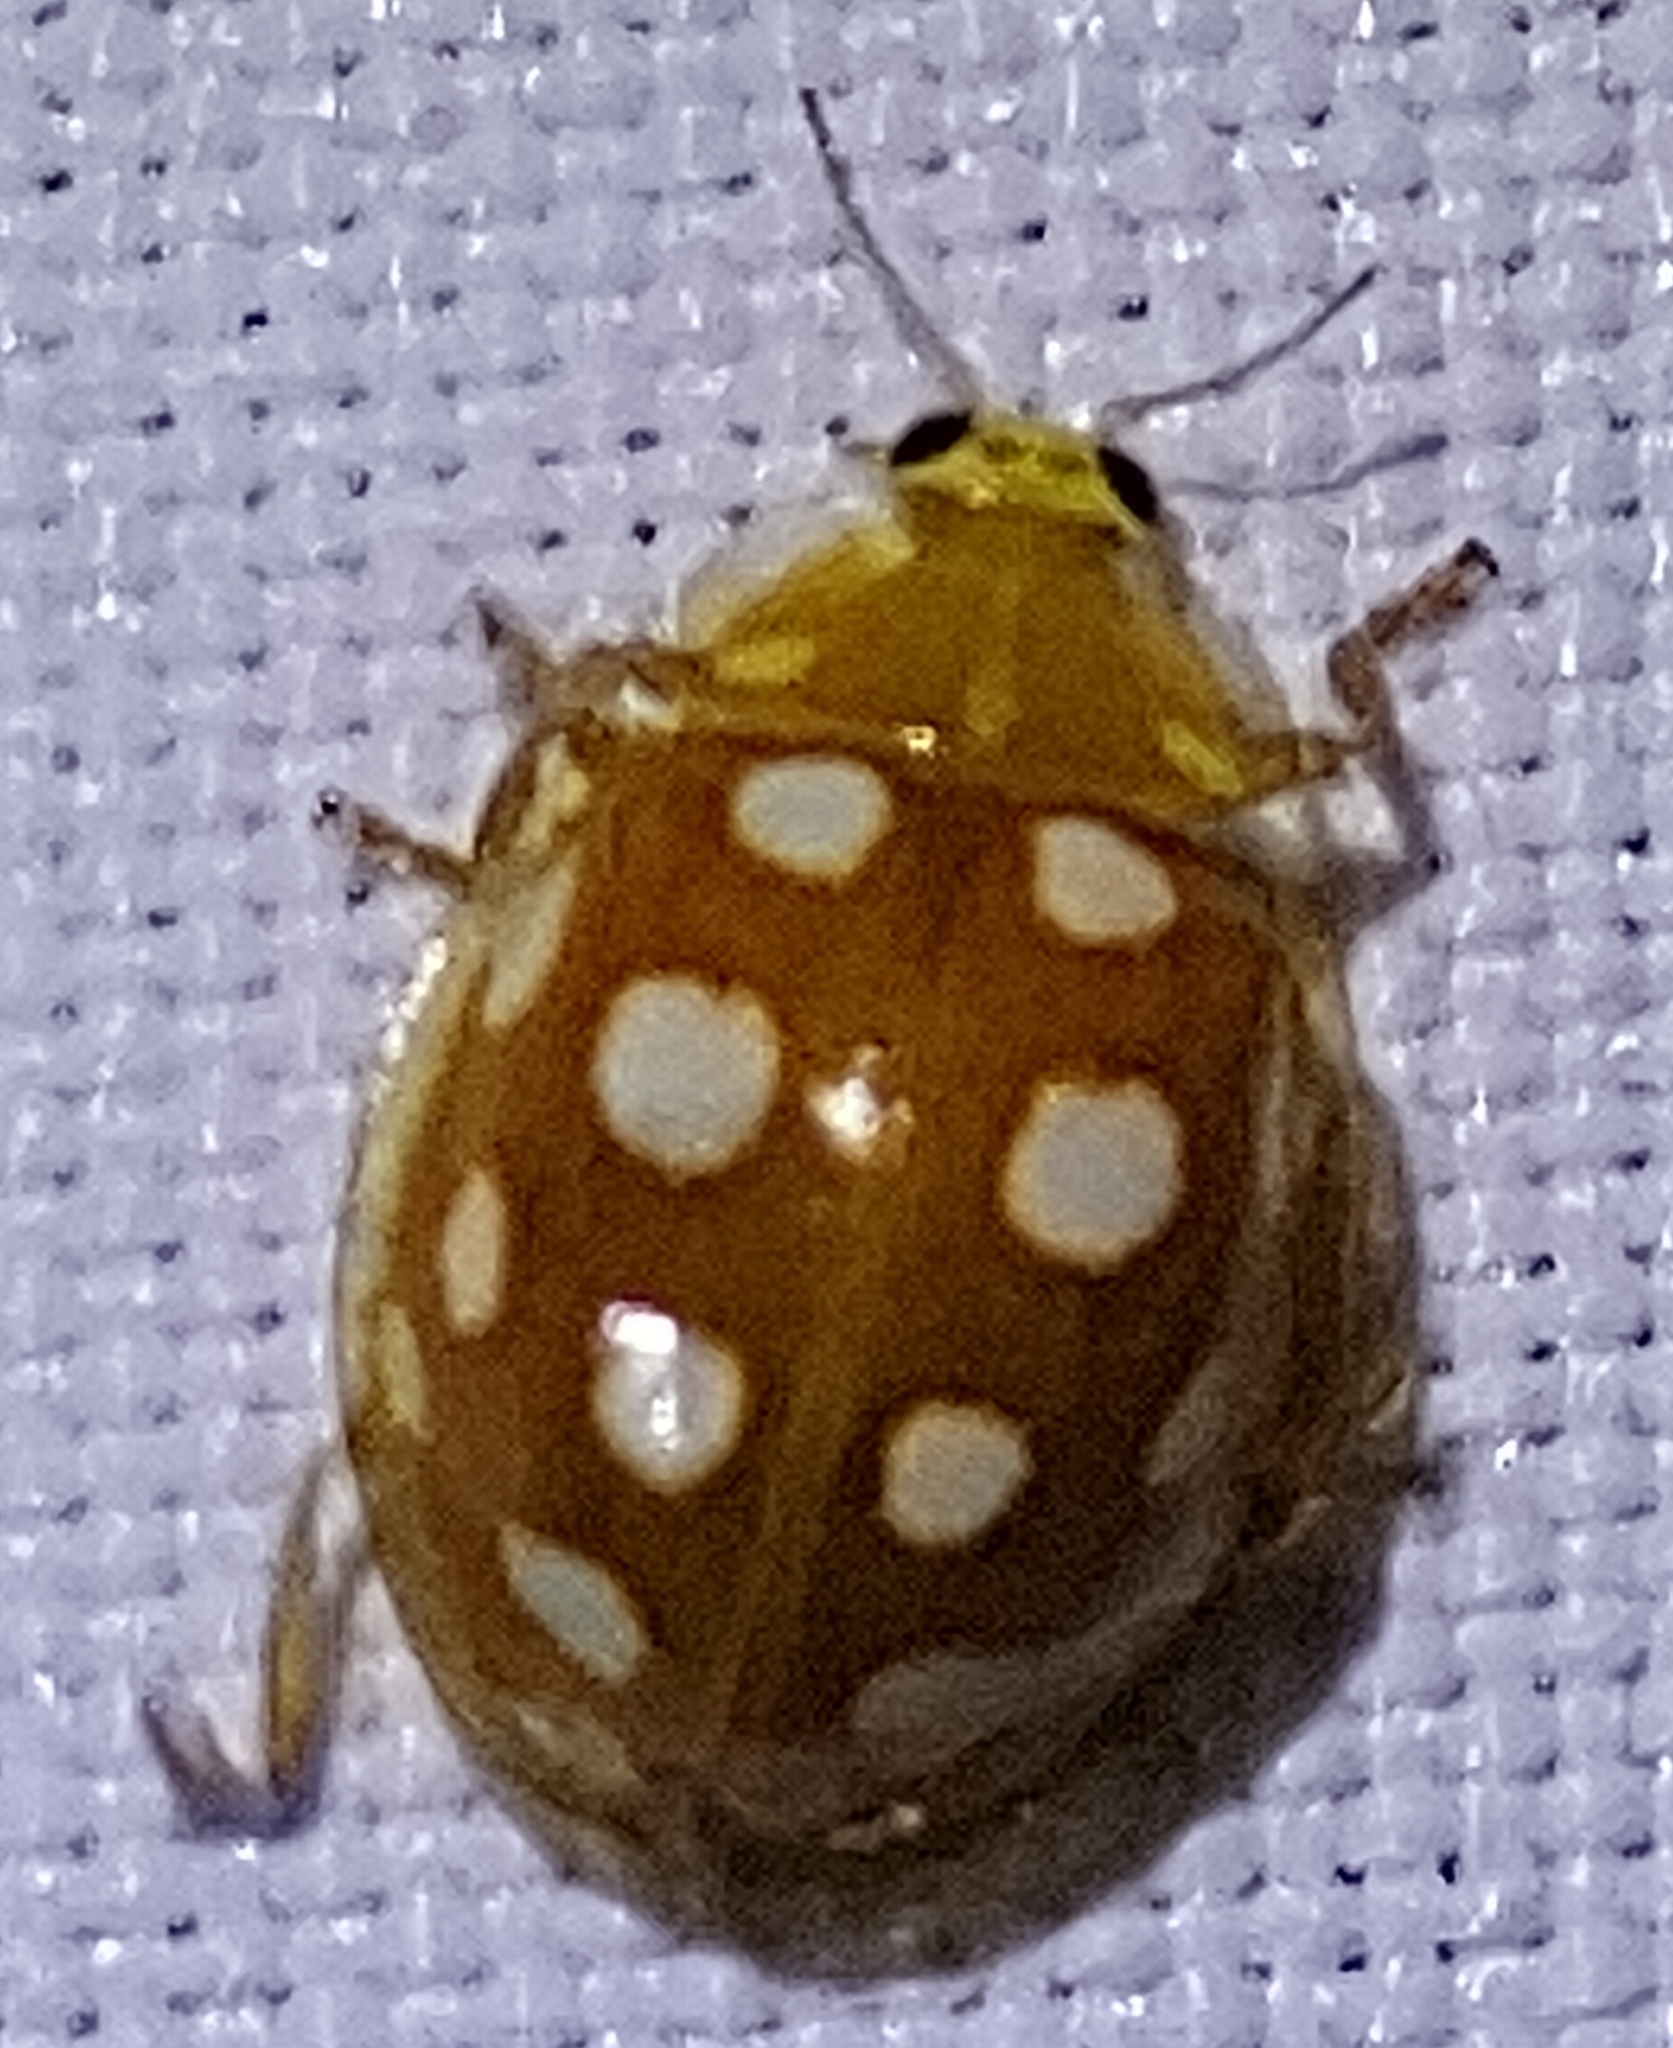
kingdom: Animalia
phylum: Arthropoda
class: Insecta
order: Coleoptera
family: Coccinellidae
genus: Halyzia
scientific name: Halyzia sedecimguttata
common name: Orange ladybird
